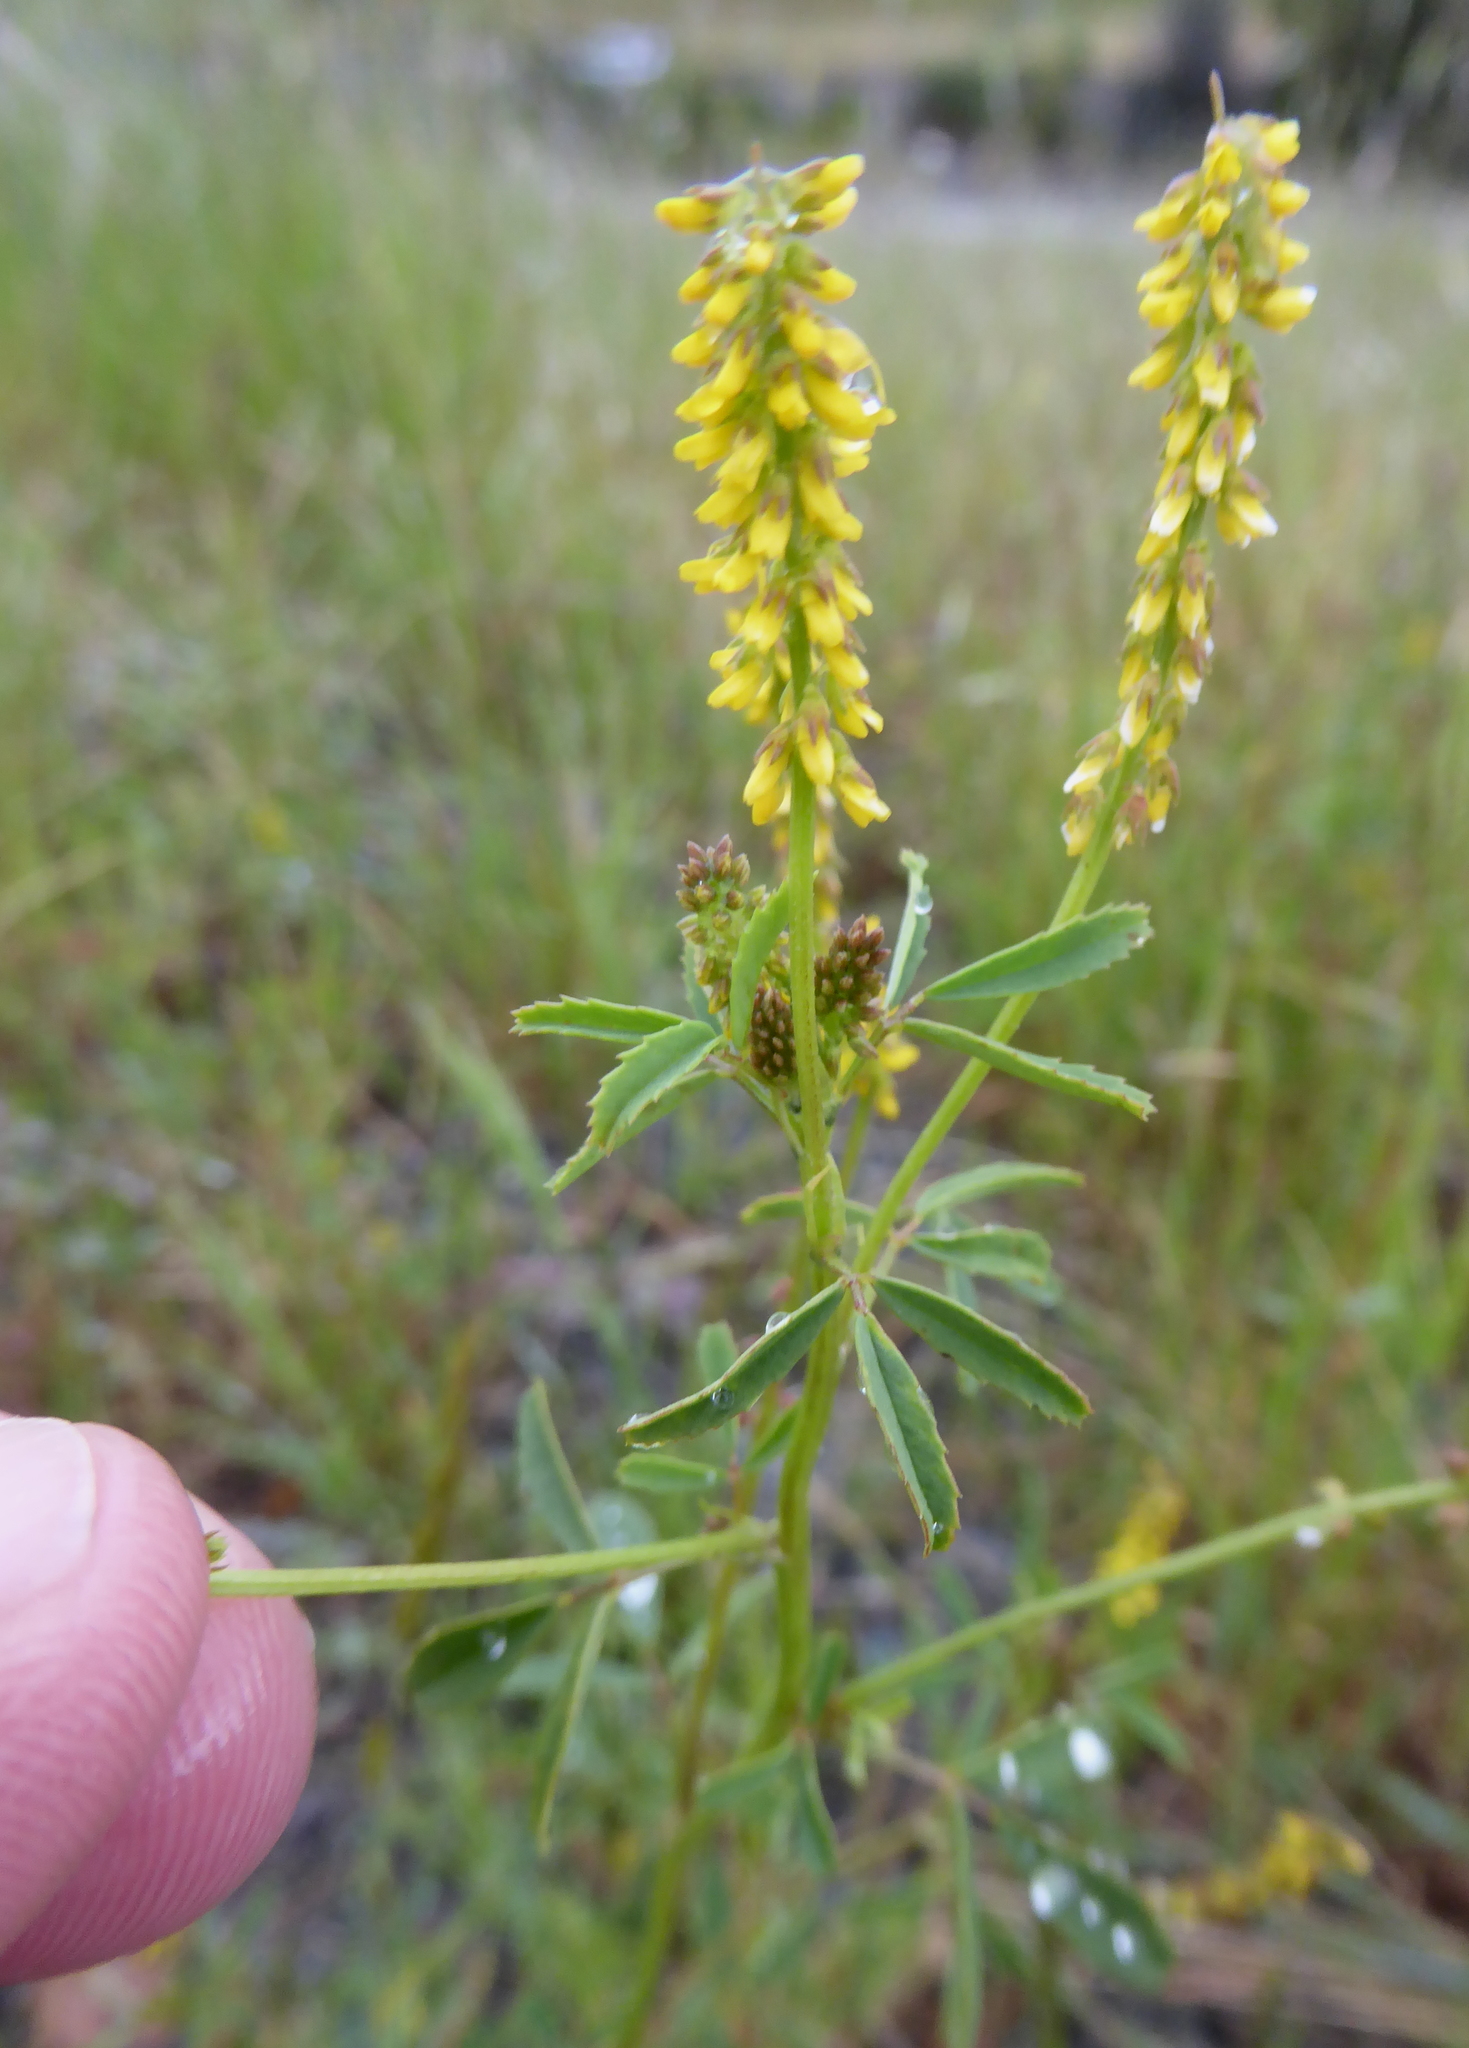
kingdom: Plantae
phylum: Tracheophyta
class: Magnoliopsida
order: Fabales
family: Fabaceae
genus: Melilotus
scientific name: Melilotus indicus
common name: Small melilot
